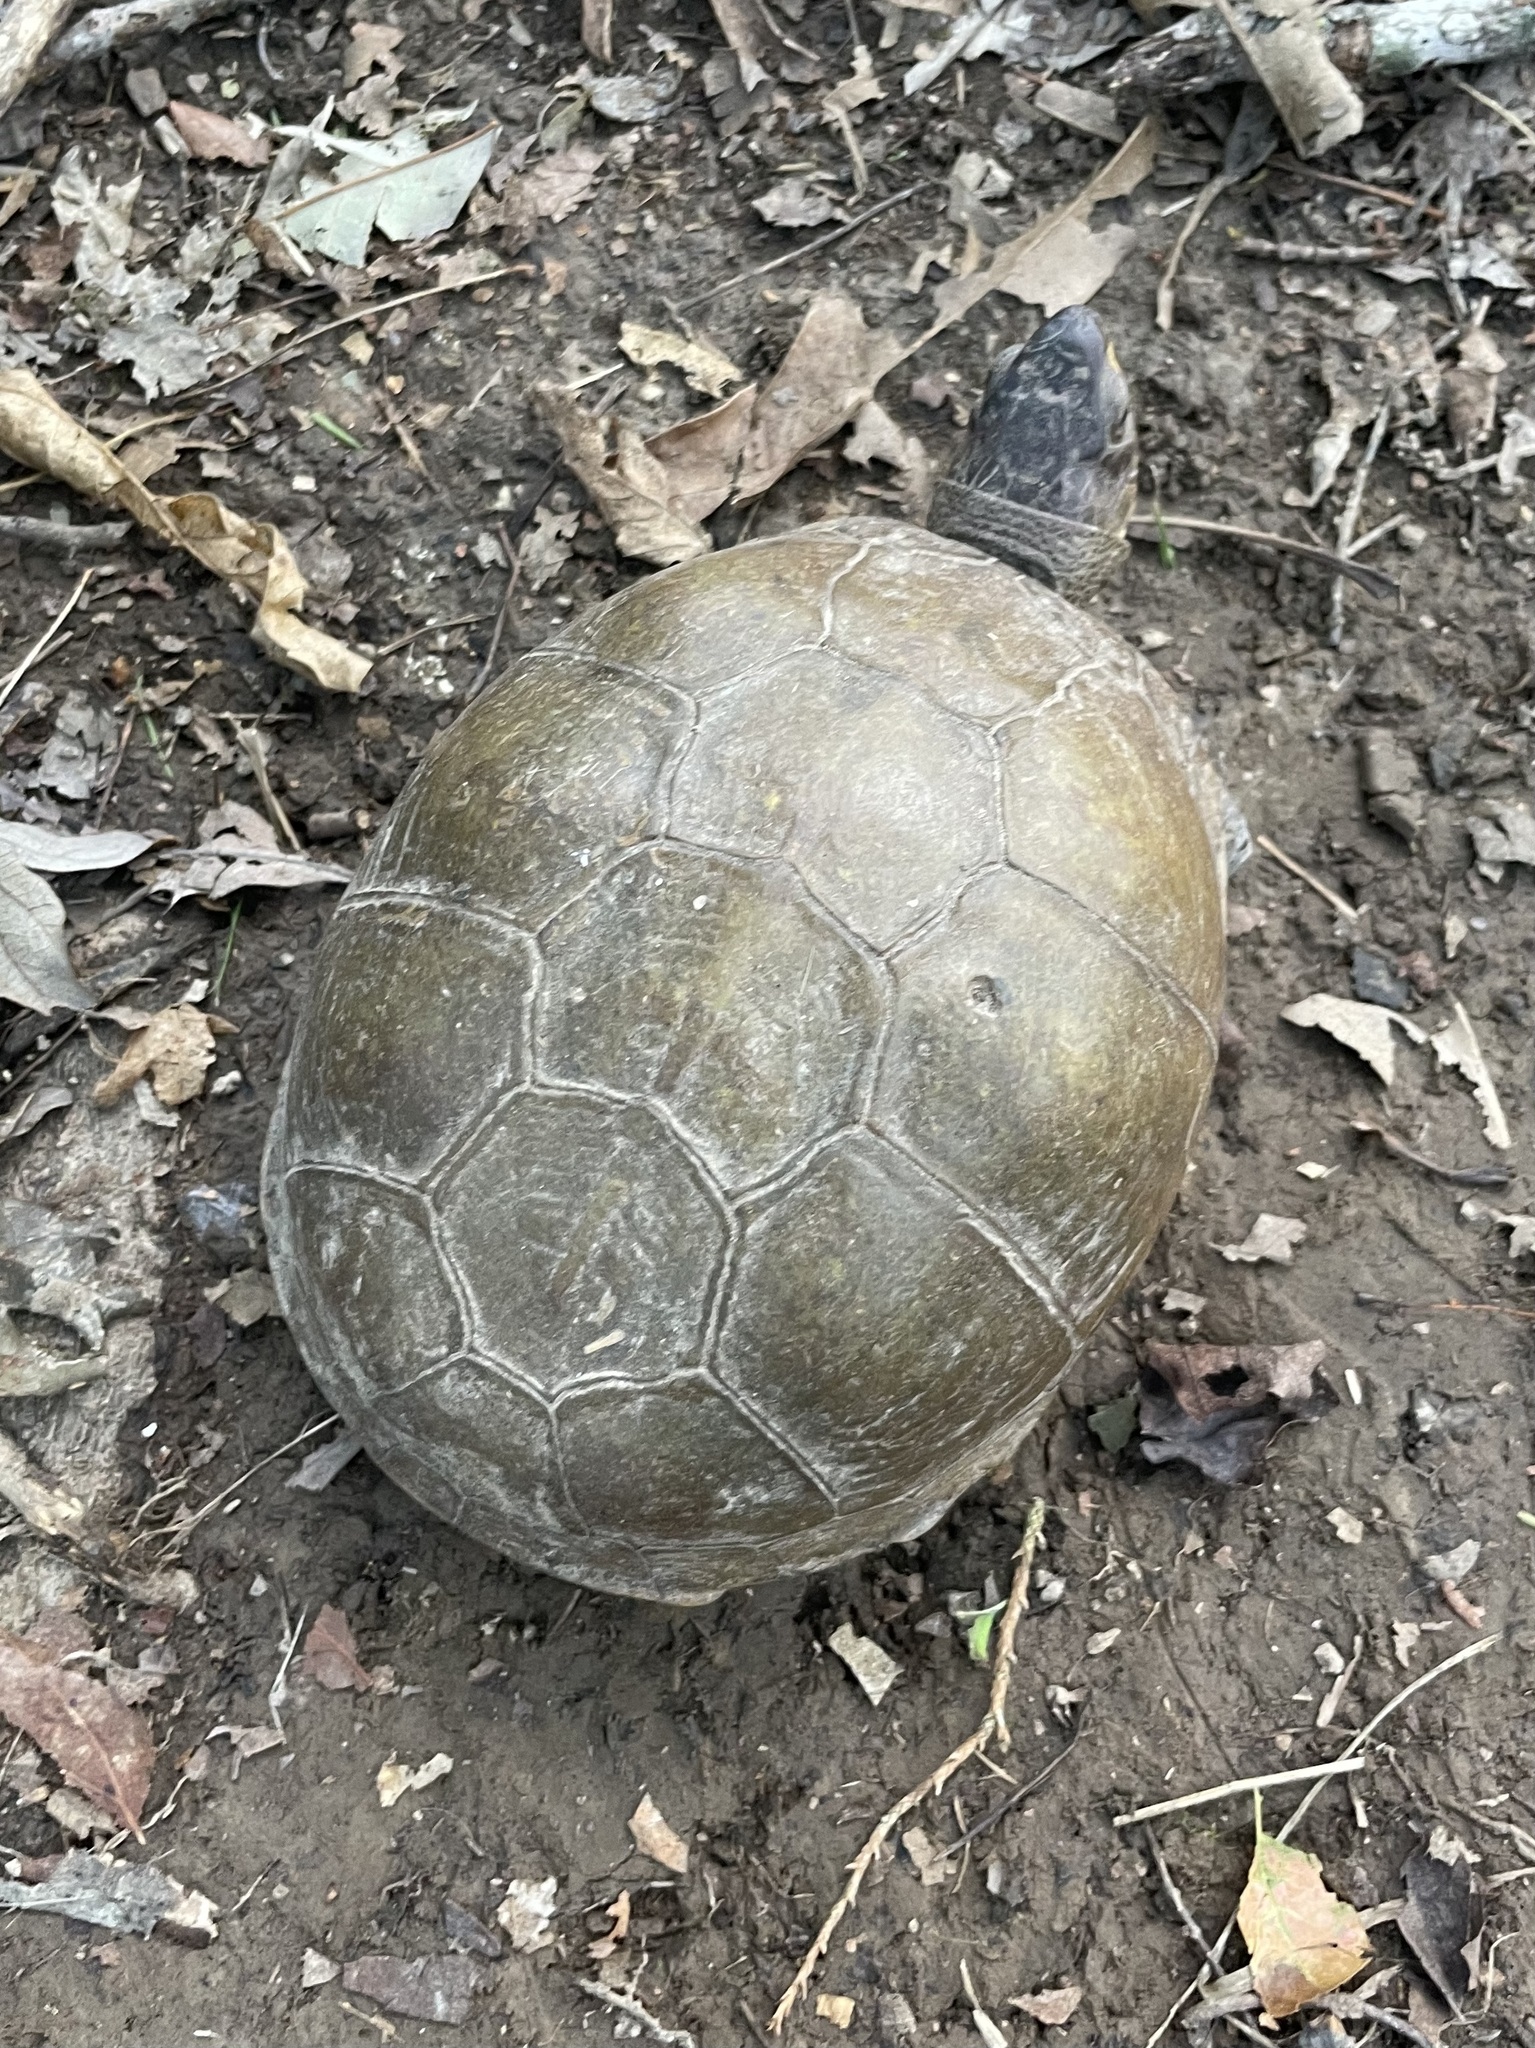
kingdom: Animalia
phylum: Chordata
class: Testudines
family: Emydidae
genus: Terrapene
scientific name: Terrapene carolina
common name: Common box turtle
